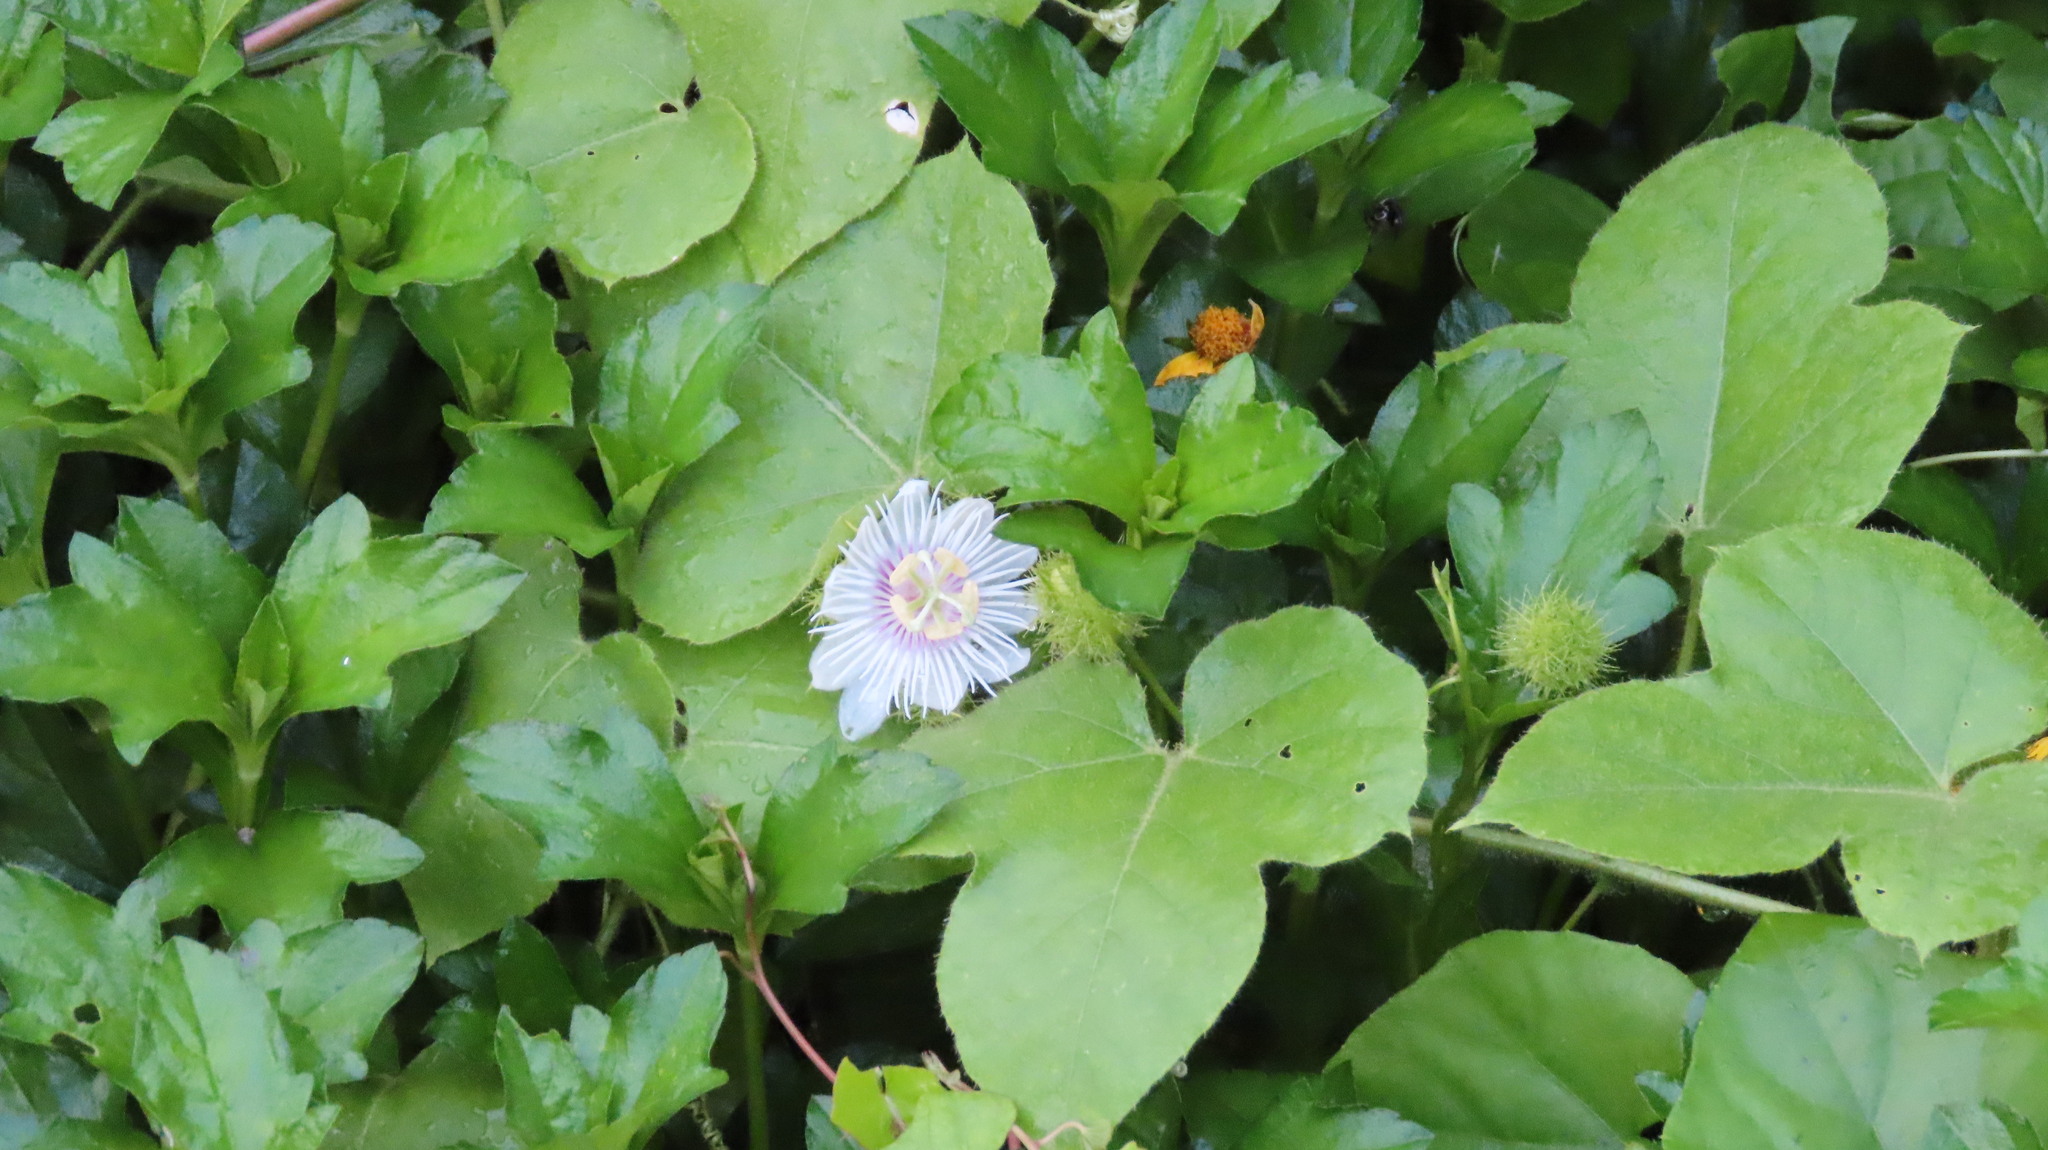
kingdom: Plantae
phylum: Tracheophyta
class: Magnoliopsida
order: Malpighiales
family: Passifloraceae
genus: Passiflora
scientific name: Passiflora vesicaria
